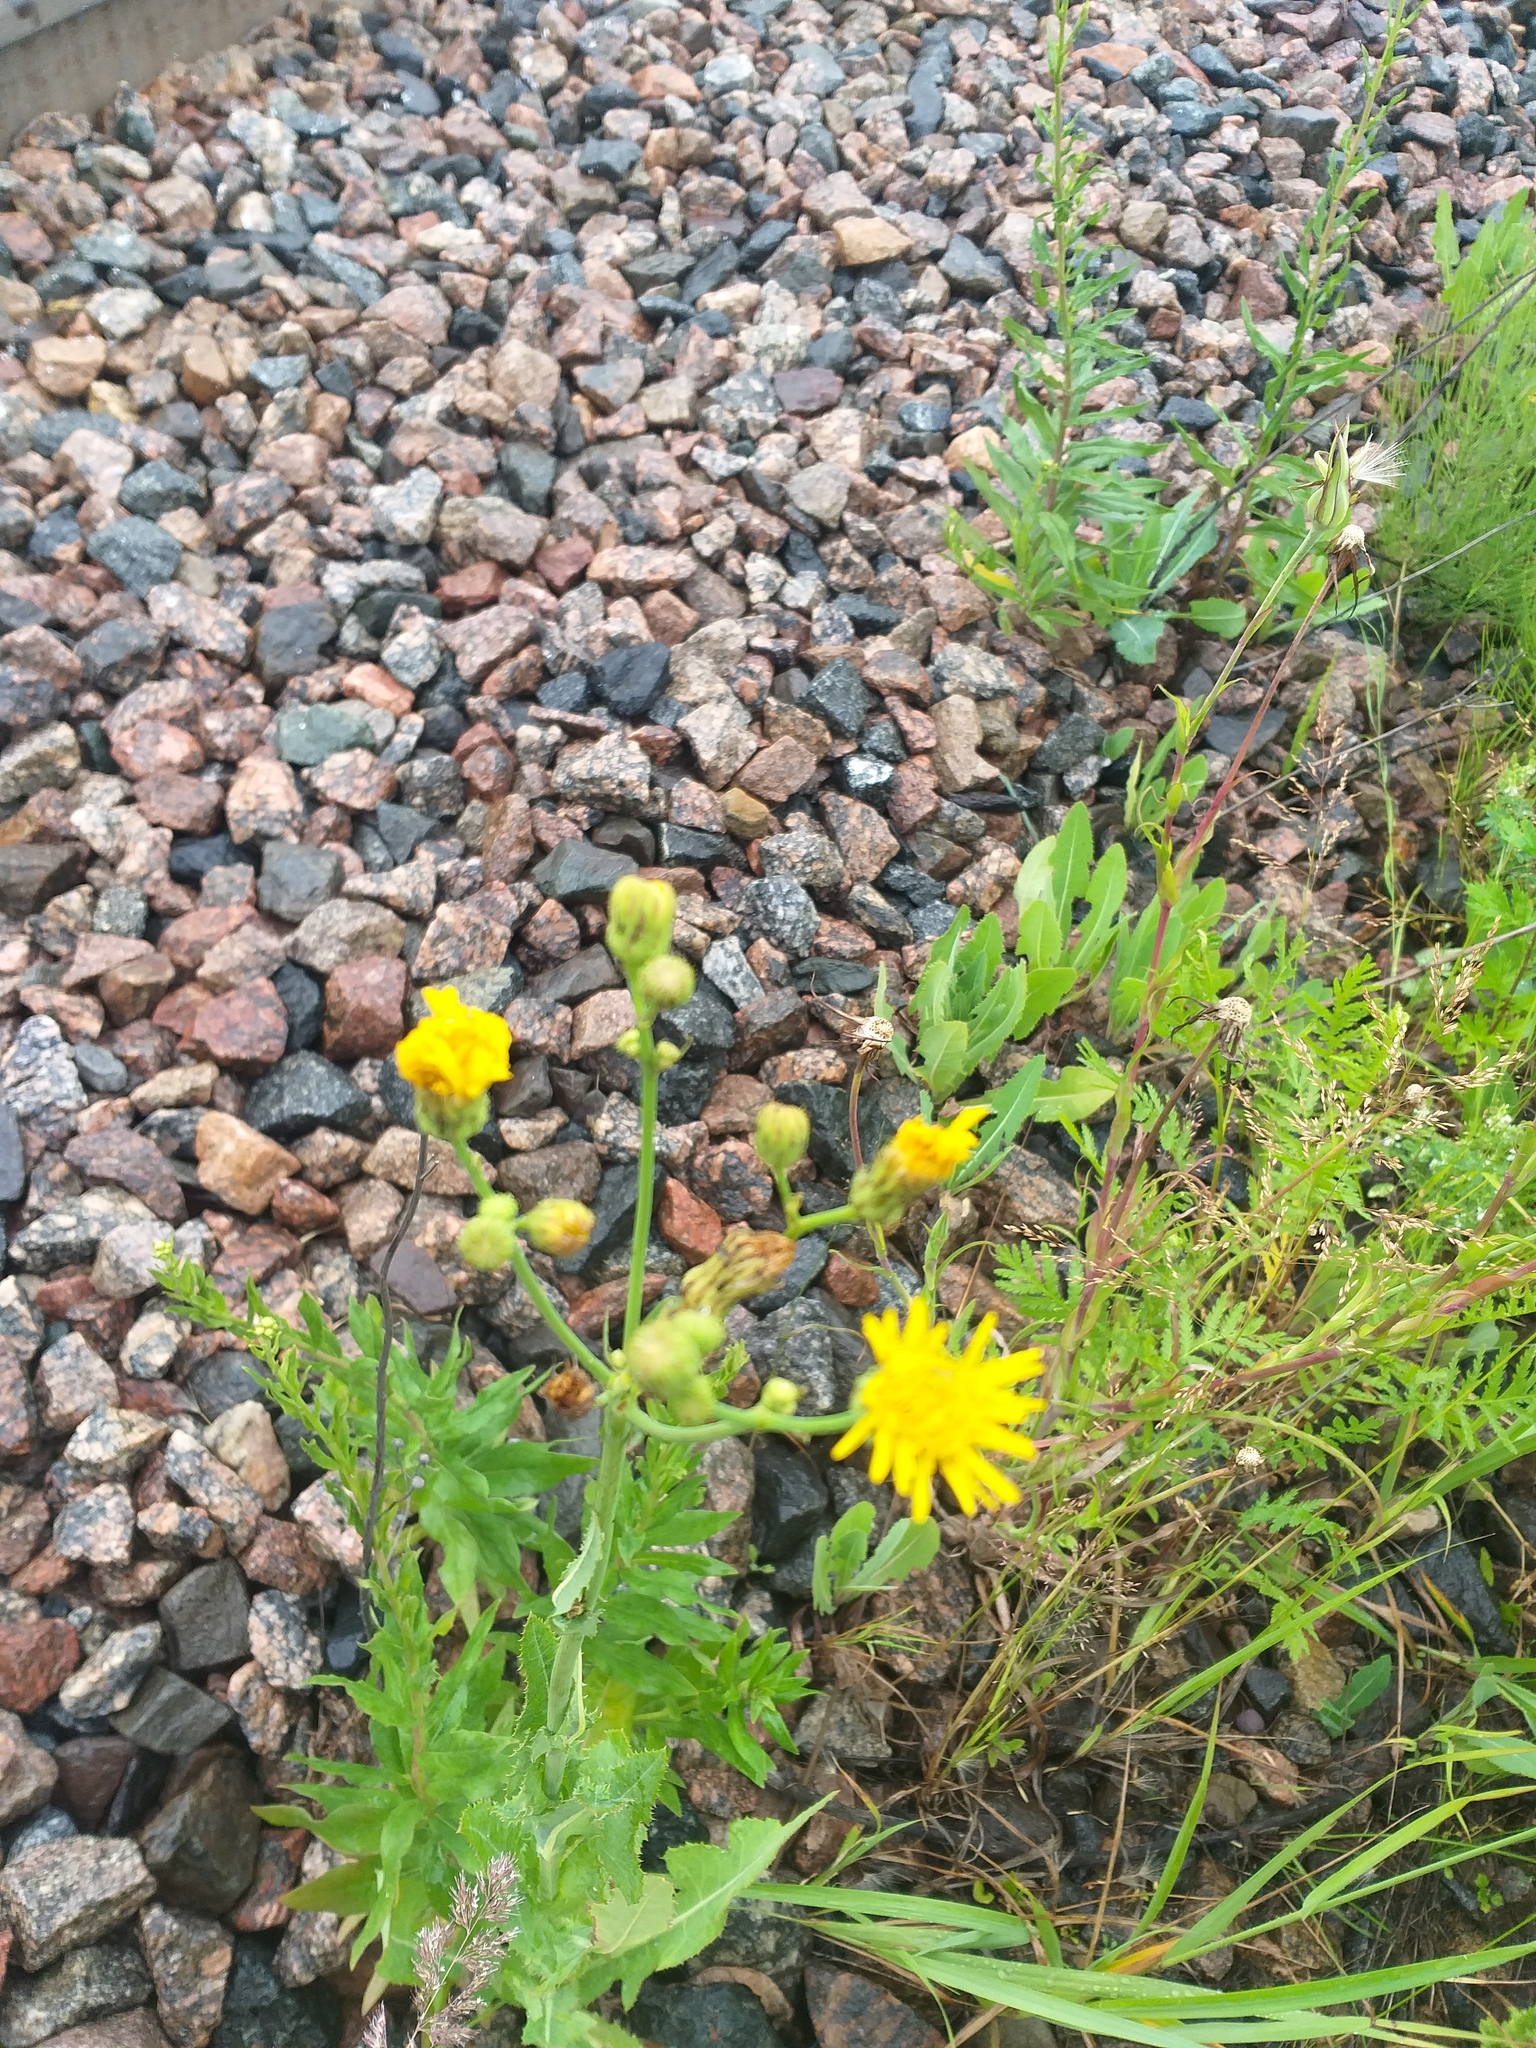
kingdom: Plantae
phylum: Tracheophyta
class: Magnoliopsida
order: Asterales
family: Asteraceae
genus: Sonchus
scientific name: Sonchus arvensis
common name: Perennial sow-thistle
